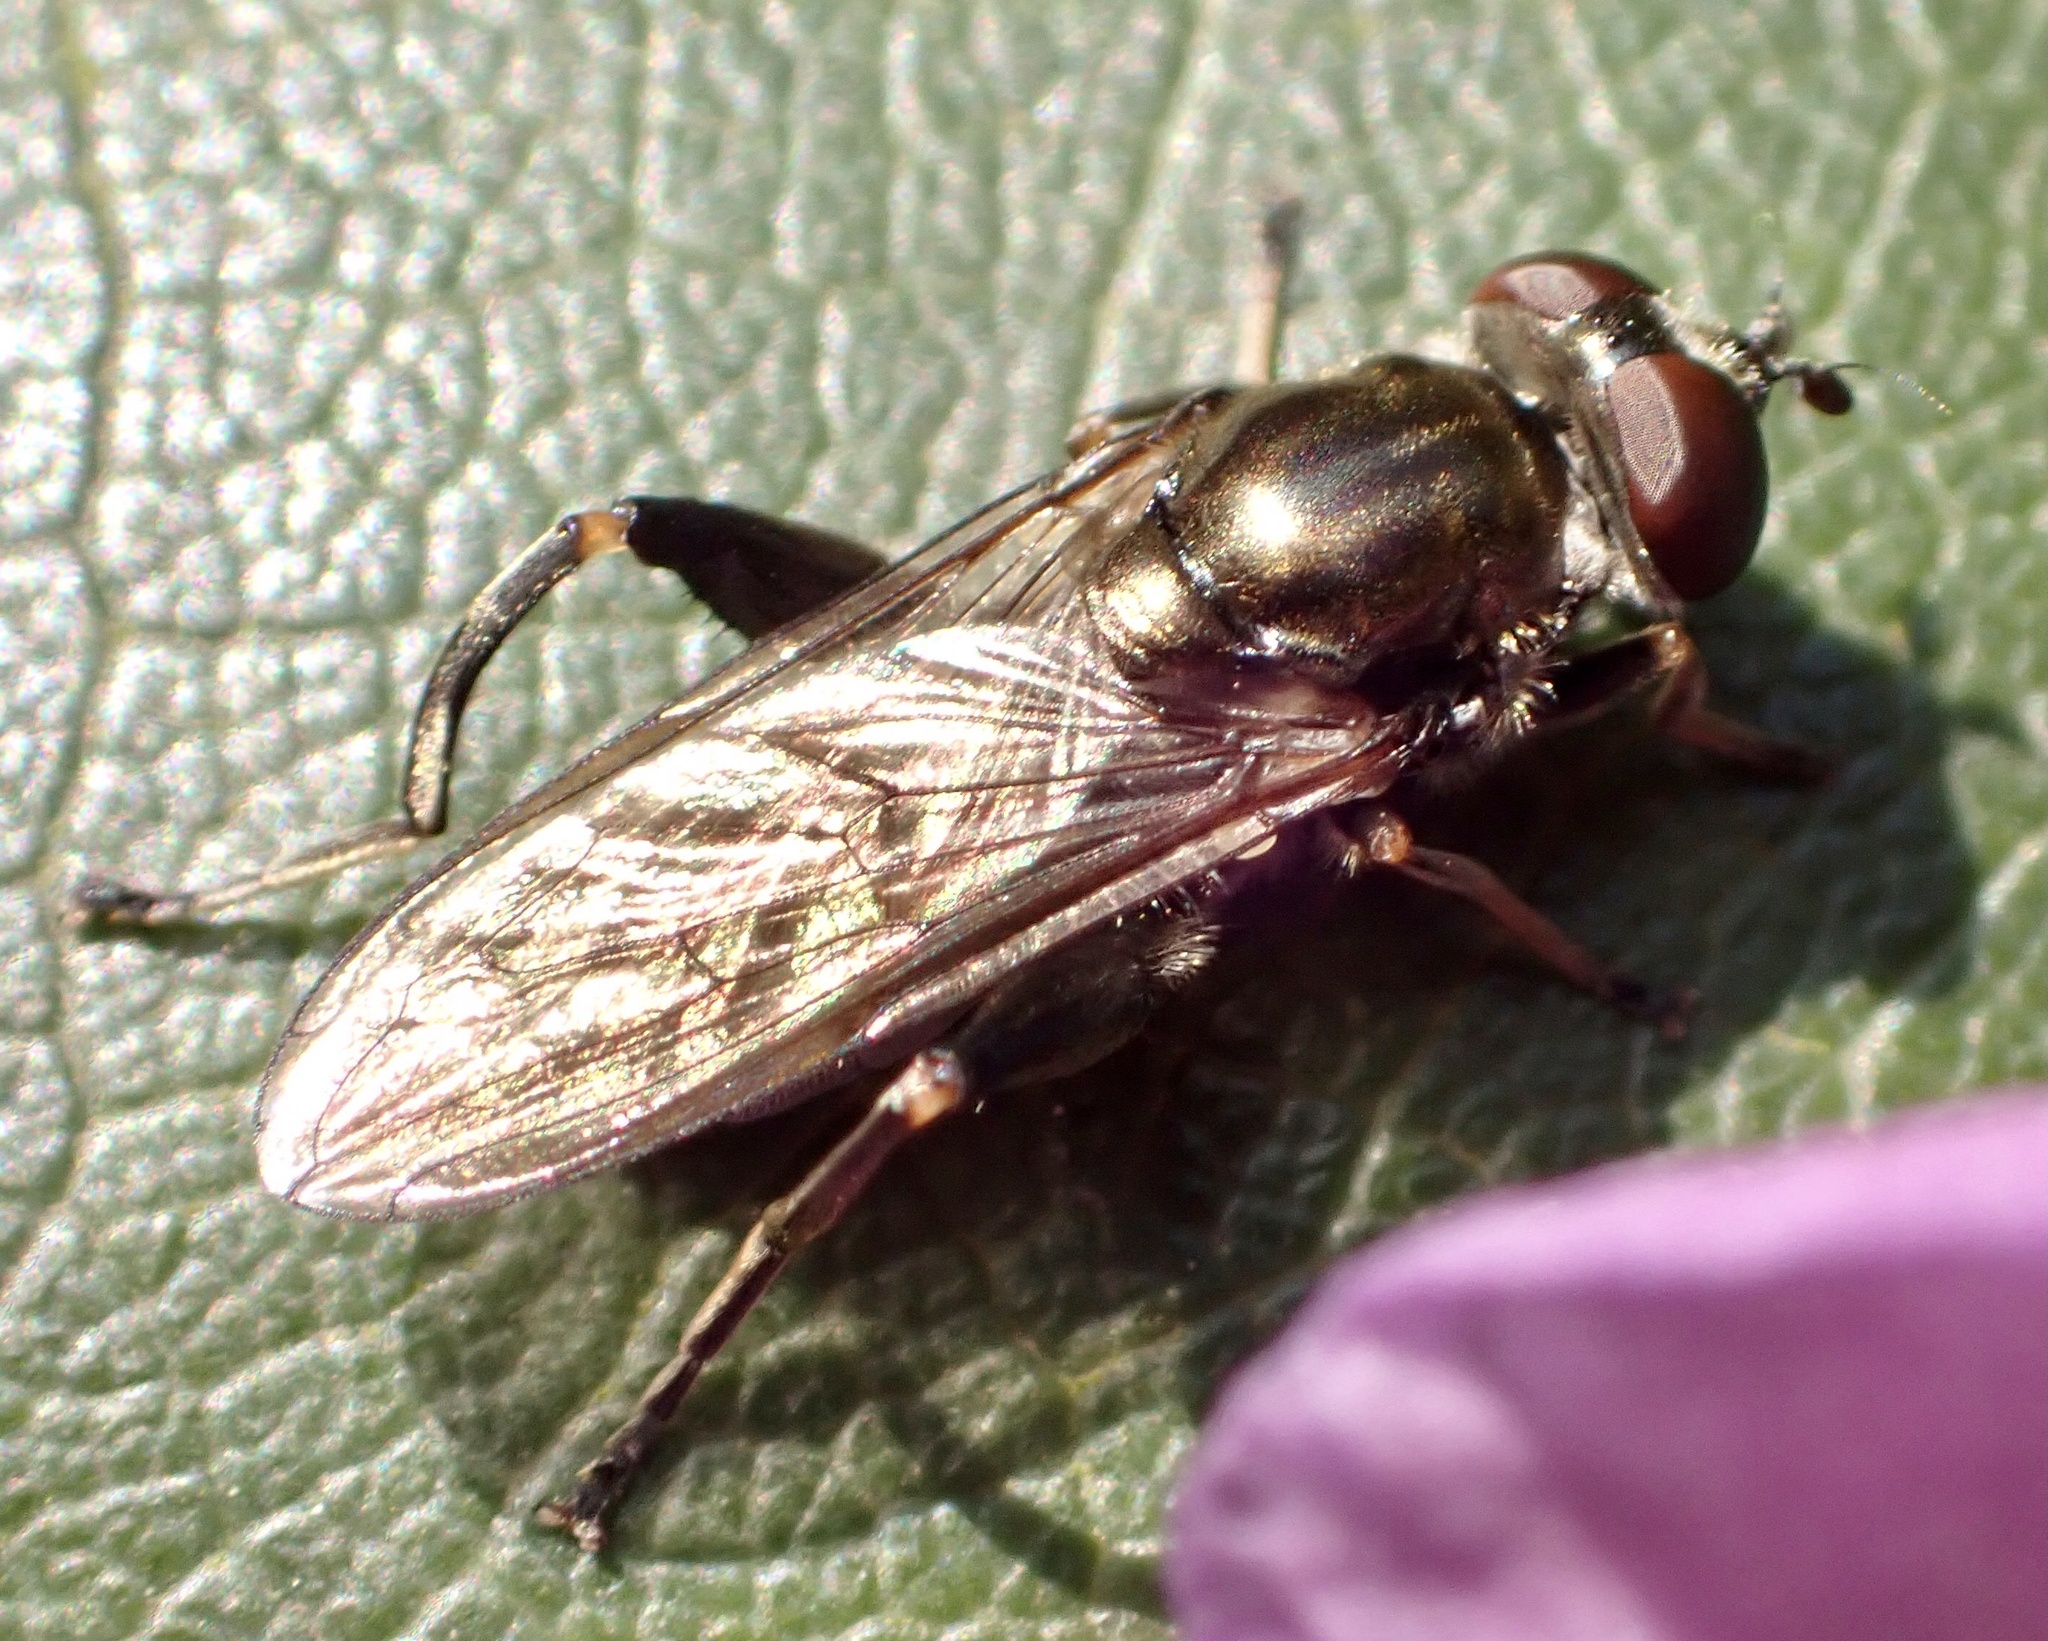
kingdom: Animalia
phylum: Arthropoda
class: Insecta
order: Diptera
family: Syrphidae
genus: Chalcosyrphus
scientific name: Chalcosyrphus nemorum
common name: Dusky-banded forest fly
